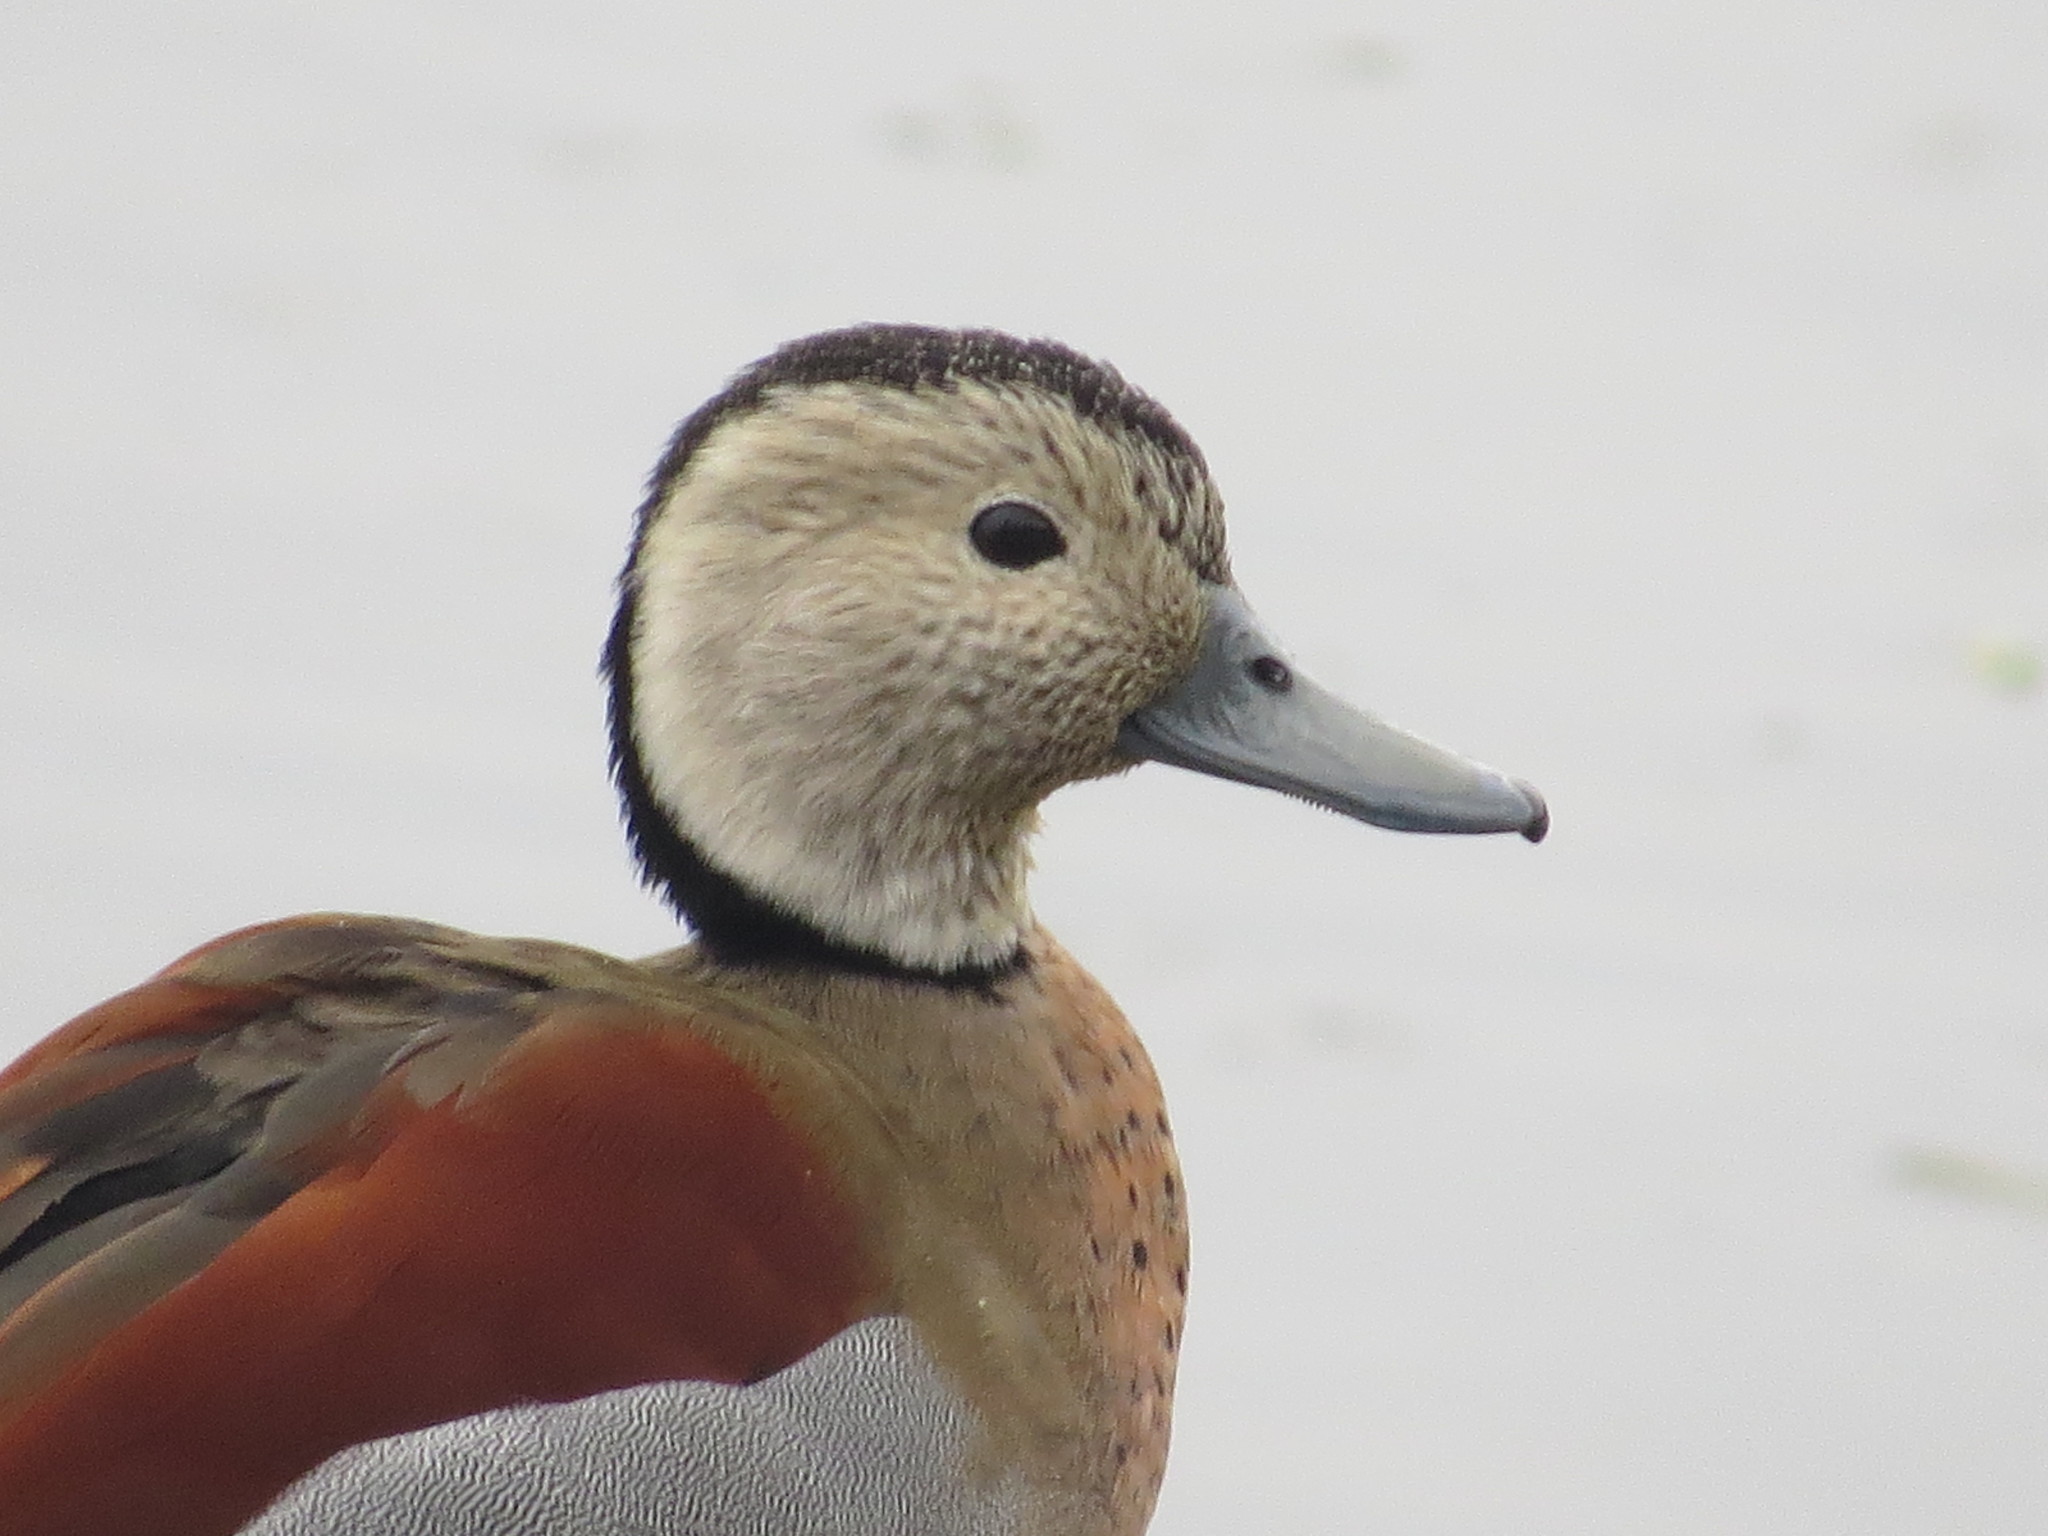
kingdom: Animalia
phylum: Chordata
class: Aves
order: Anseriformes
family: Anatidae
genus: Callonetta
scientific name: Callonetta leucophrys
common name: Ringed teal
